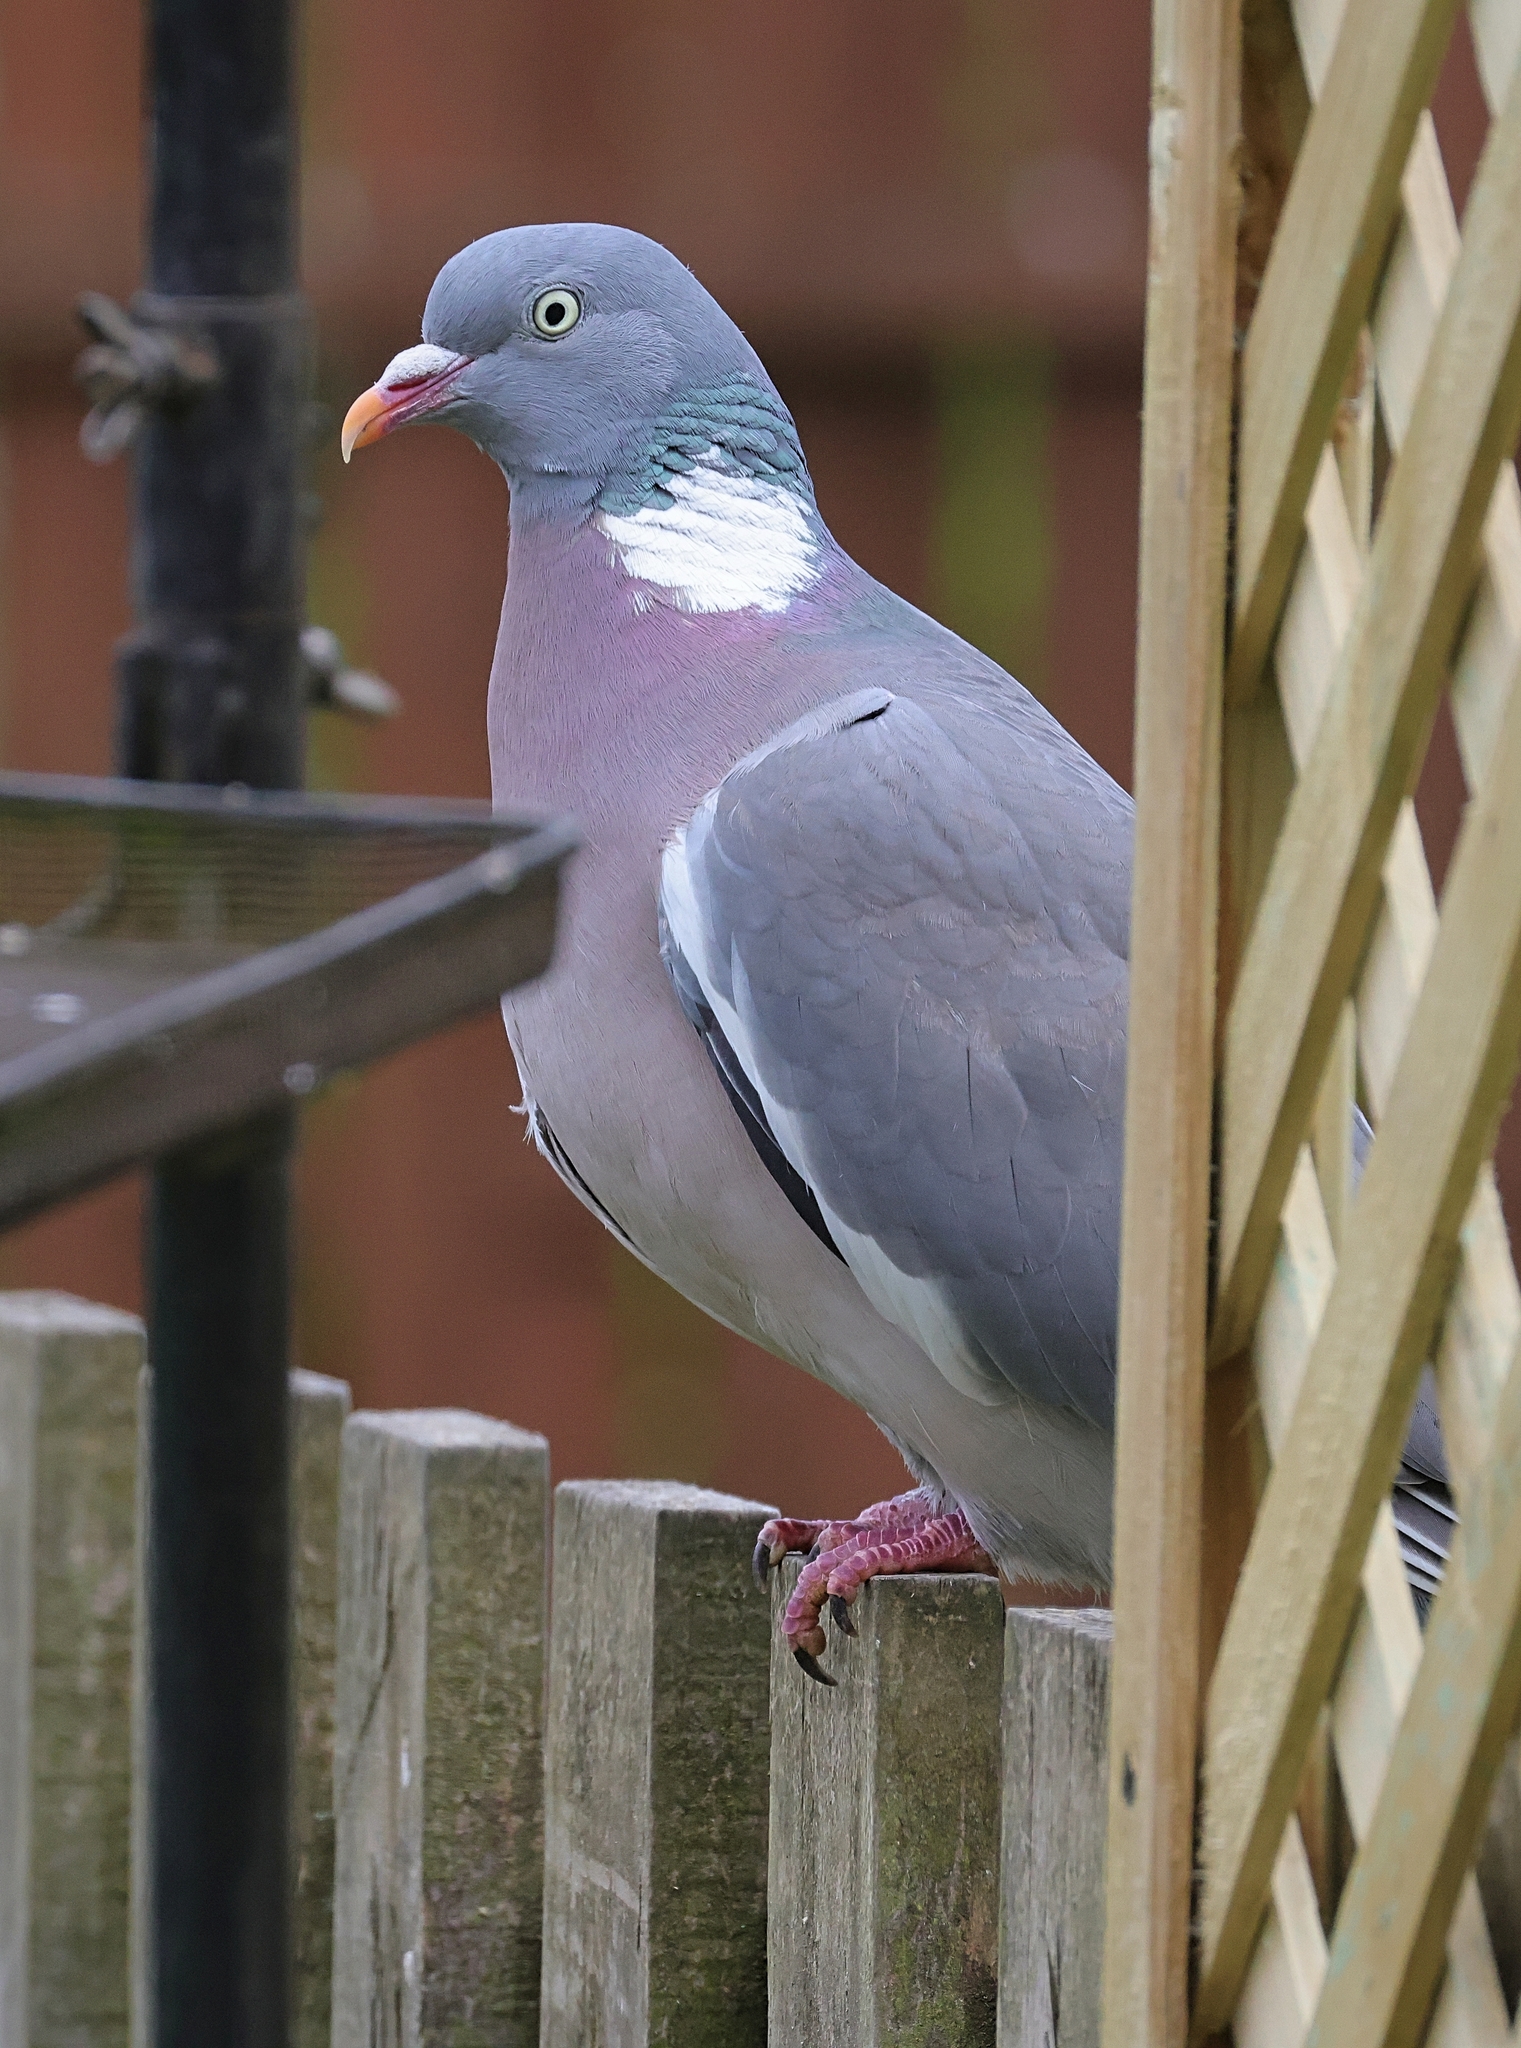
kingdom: Animalia
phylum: Chordata
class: Aves
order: Columbiformes
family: Columbidae
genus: Columba
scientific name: Columba palumbus
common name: Common wood pigeon
